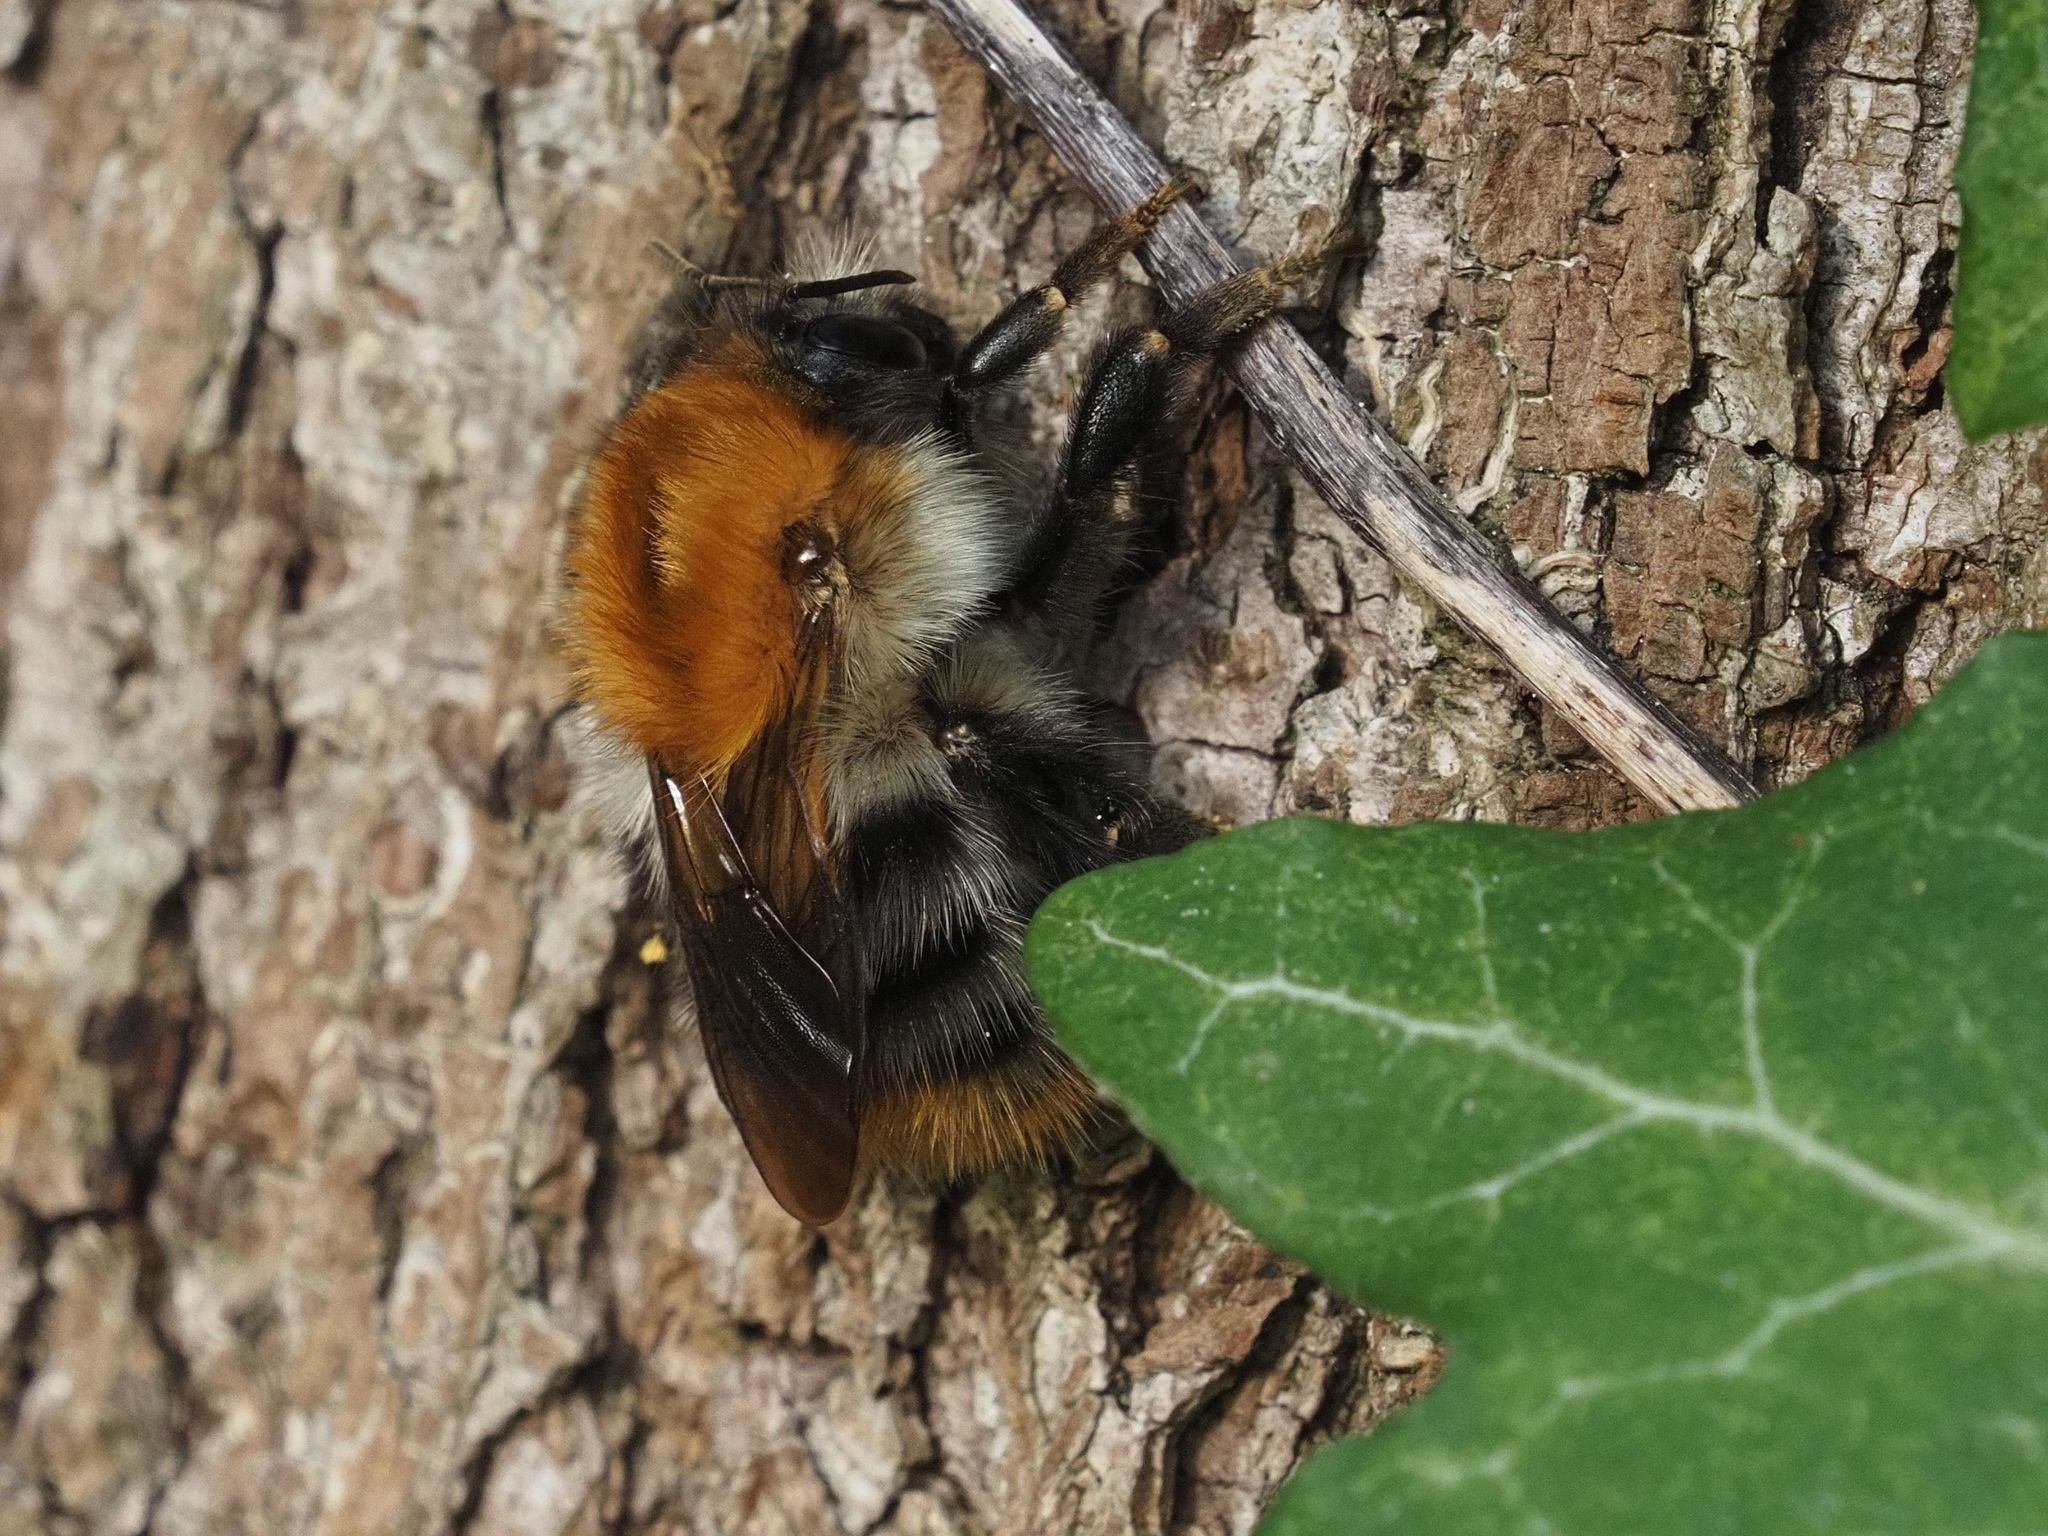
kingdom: Animalia
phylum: Arthropoda
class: Insecta
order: Hymenoptera
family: Apidae
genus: Bombus
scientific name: Bombus pascuorum
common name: Common carder bee
